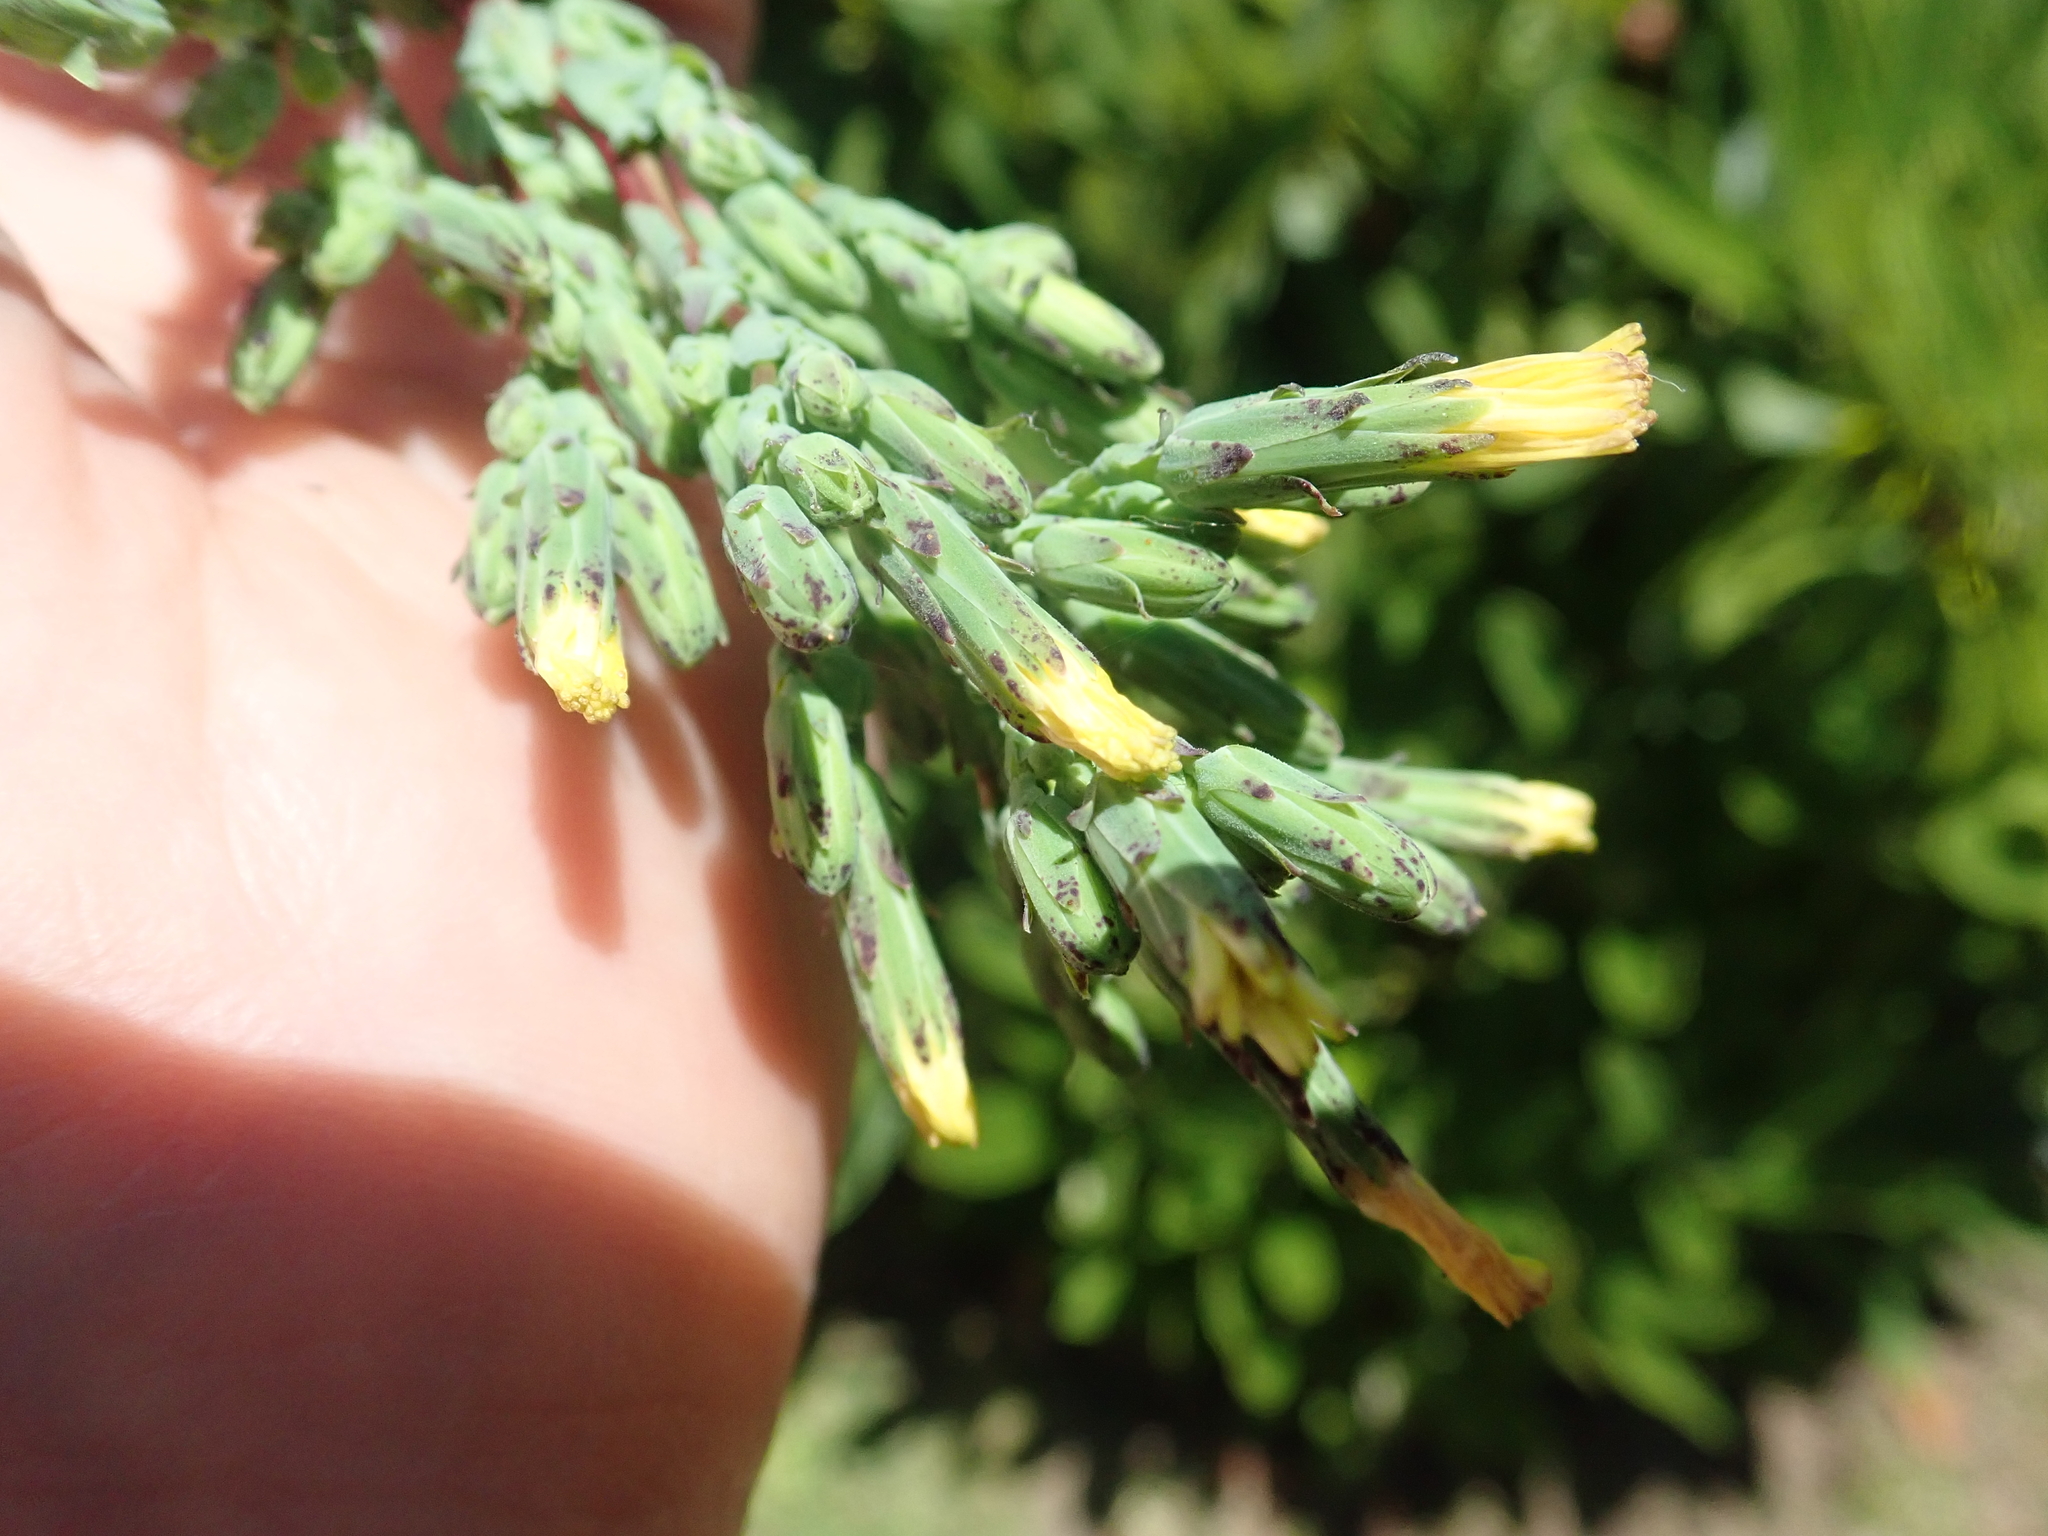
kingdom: Plantae
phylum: Tracheophyta
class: Magnoliopsida
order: Asterales
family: Asteraceae
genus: Lactuca
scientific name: Lactuca virosa
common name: Great lettuce
